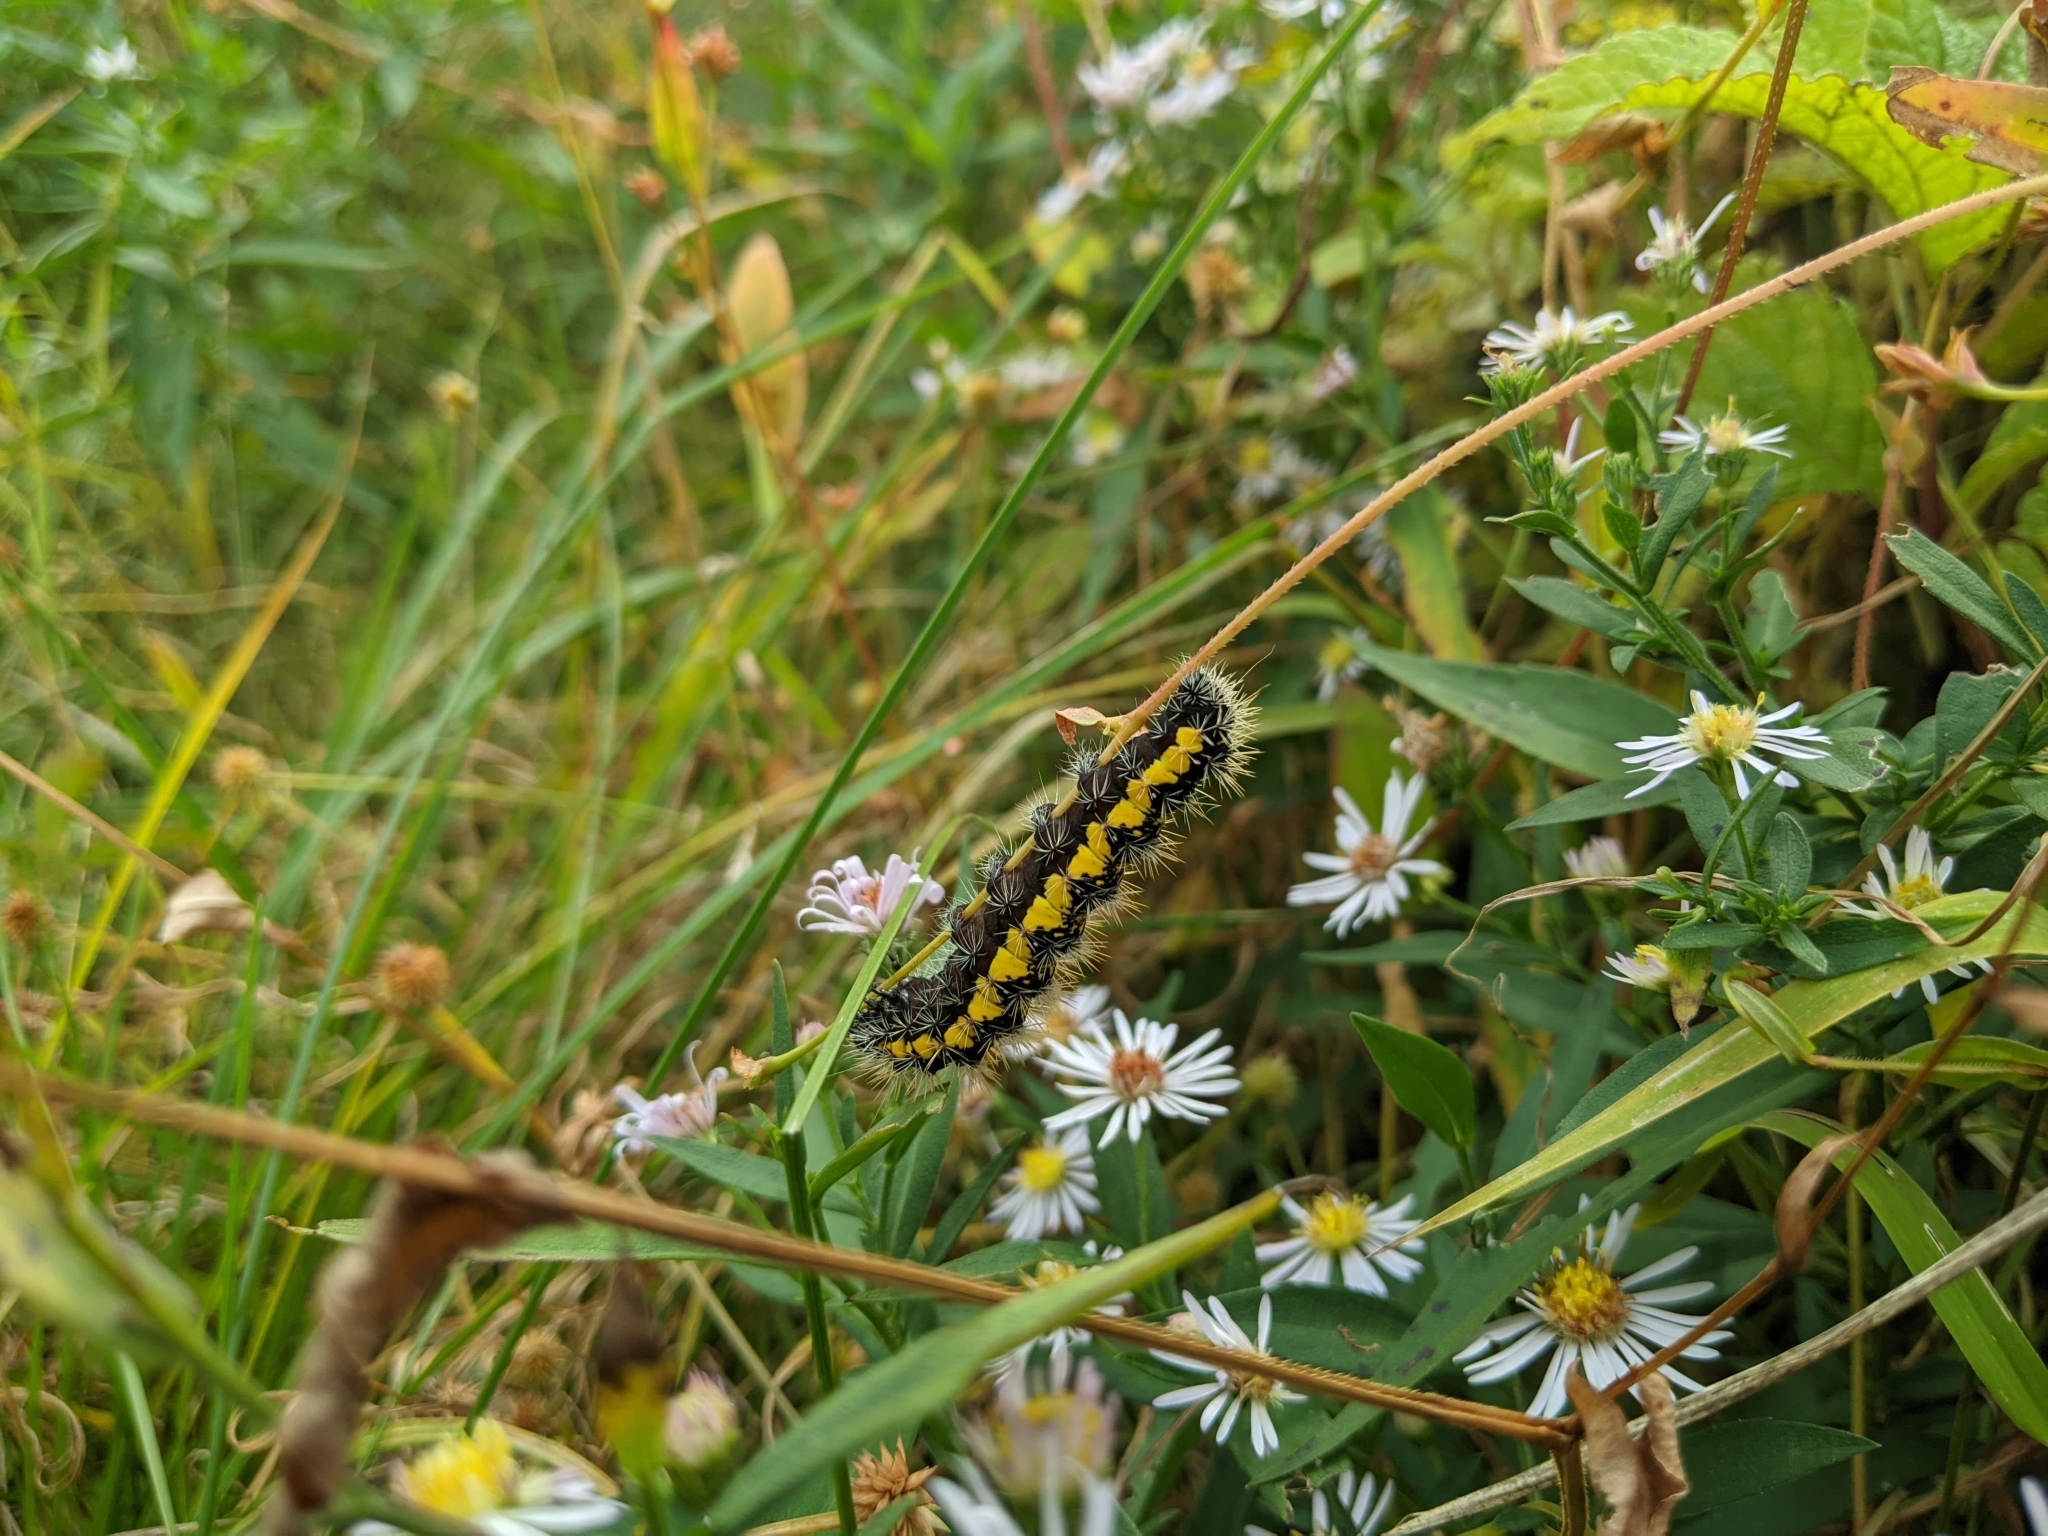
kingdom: Animalia
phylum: Arthropoda
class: Insecta
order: Lepidoptera
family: Noctuidae
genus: Acronicta
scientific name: Acronicta oblinita
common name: Smeared dagger
